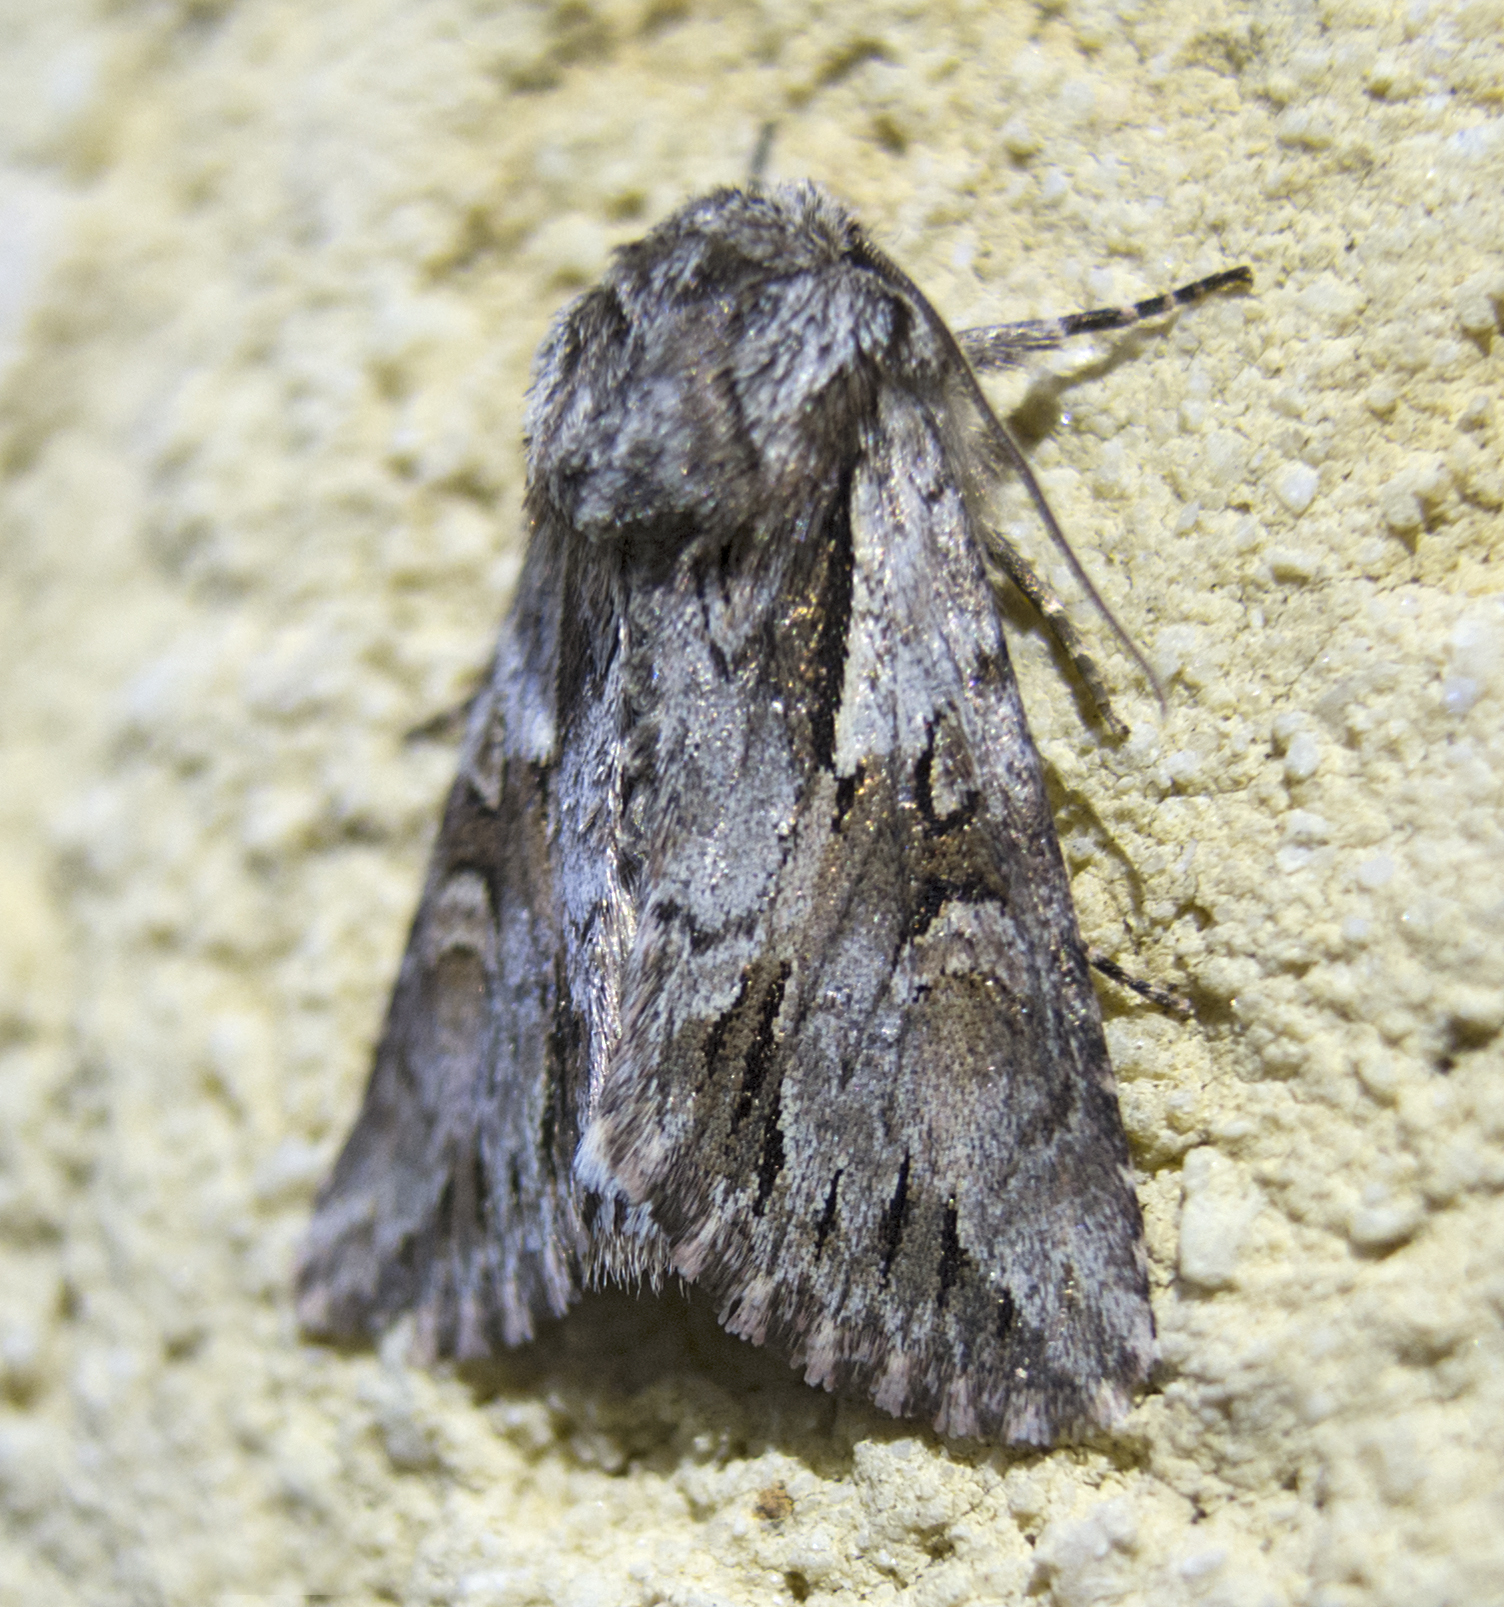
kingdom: Animalia
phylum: Arthropoda
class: Insecta
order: Lepidoptera
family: Noctuidae
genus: Chloantha
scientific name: Chloantha hyperici
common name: Pale-shouldered cloud
